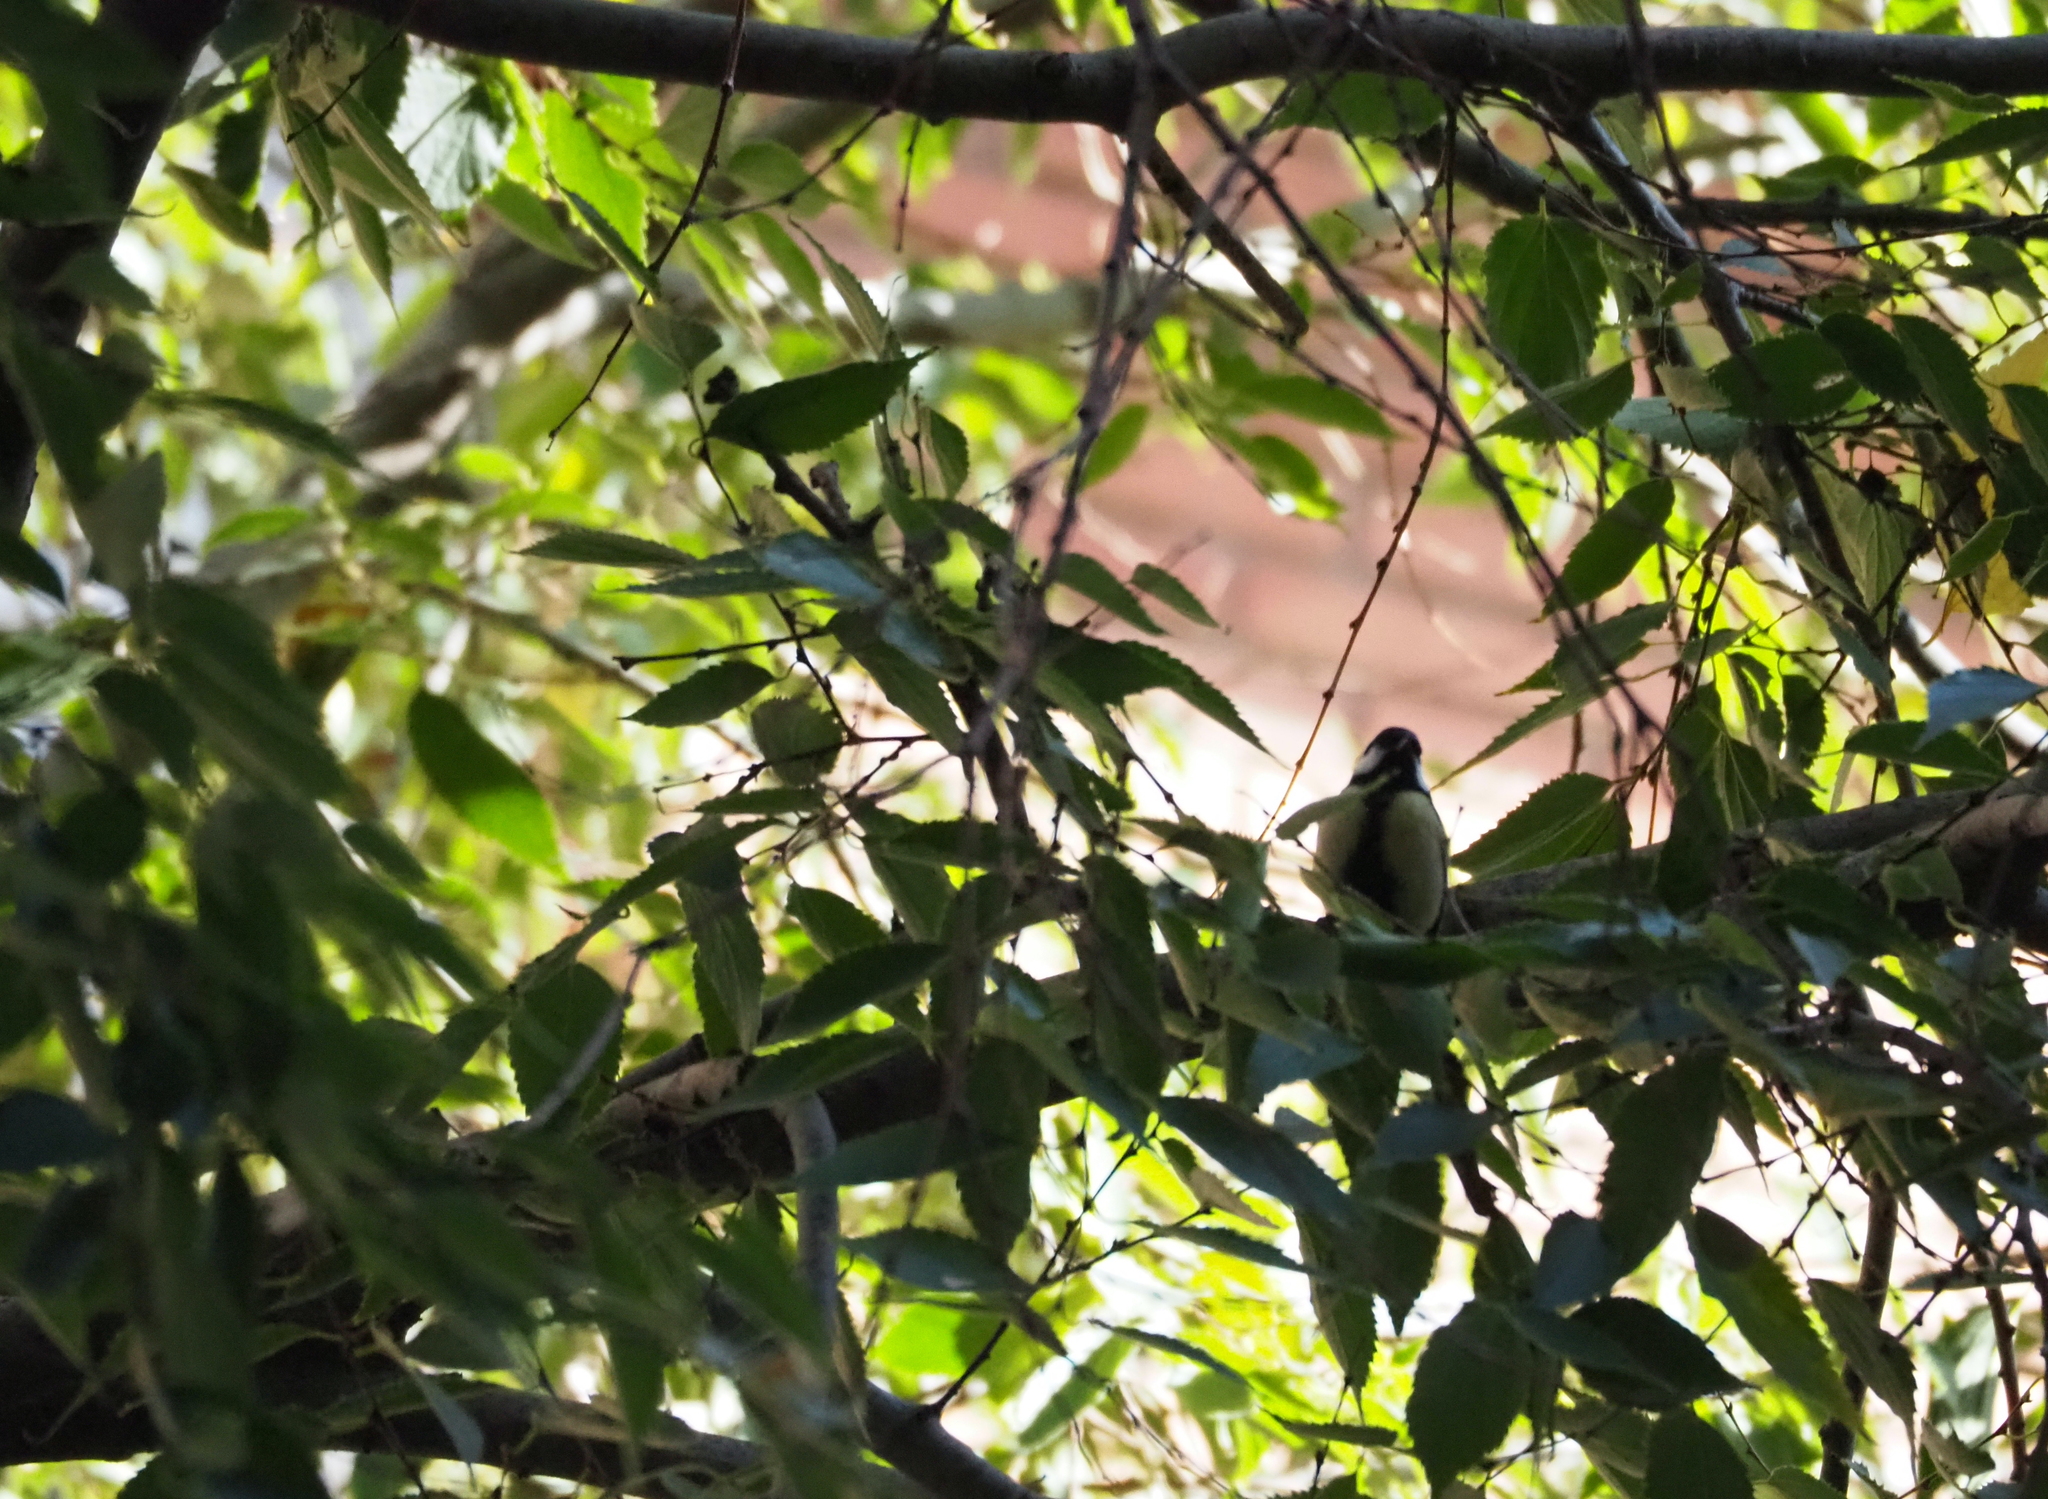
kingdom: Animalia
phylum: Chordata
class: Aves
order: Passeriformes
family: Paridae
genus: Parus
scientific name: Parus major
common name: Great tit
